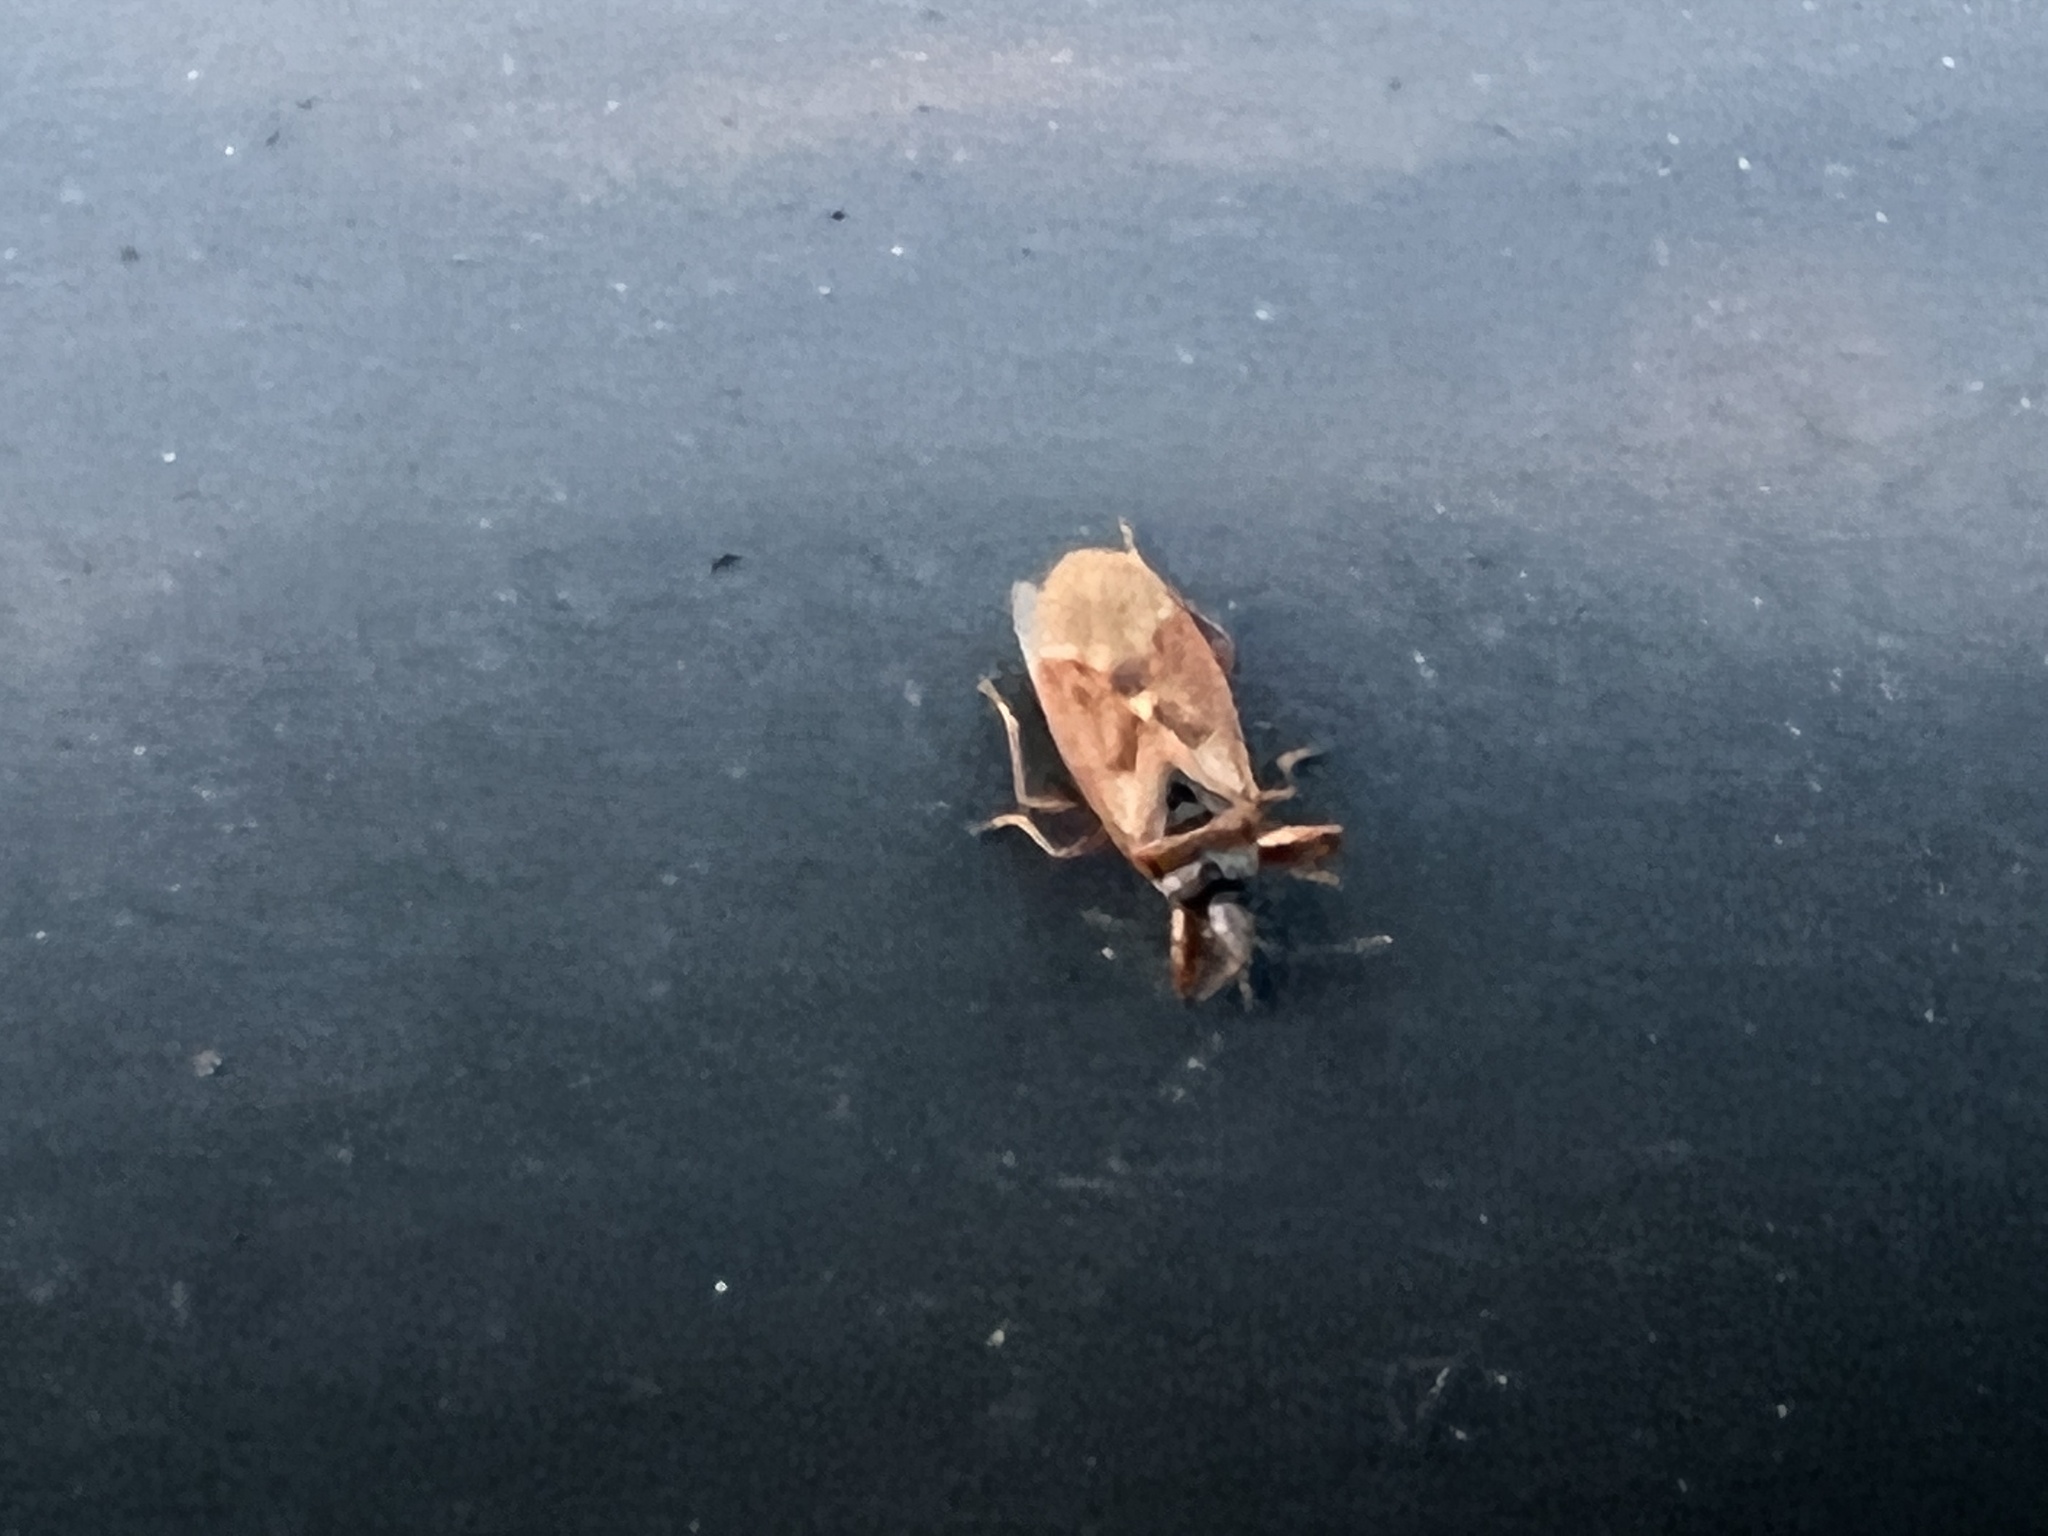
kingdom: Animalia
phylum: Arthropoda
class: Insecta
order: Hemiptera
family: Rhyparochromidae
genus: Gastrodes
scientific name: Gastrodes abietum
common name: Spruce cone bug
